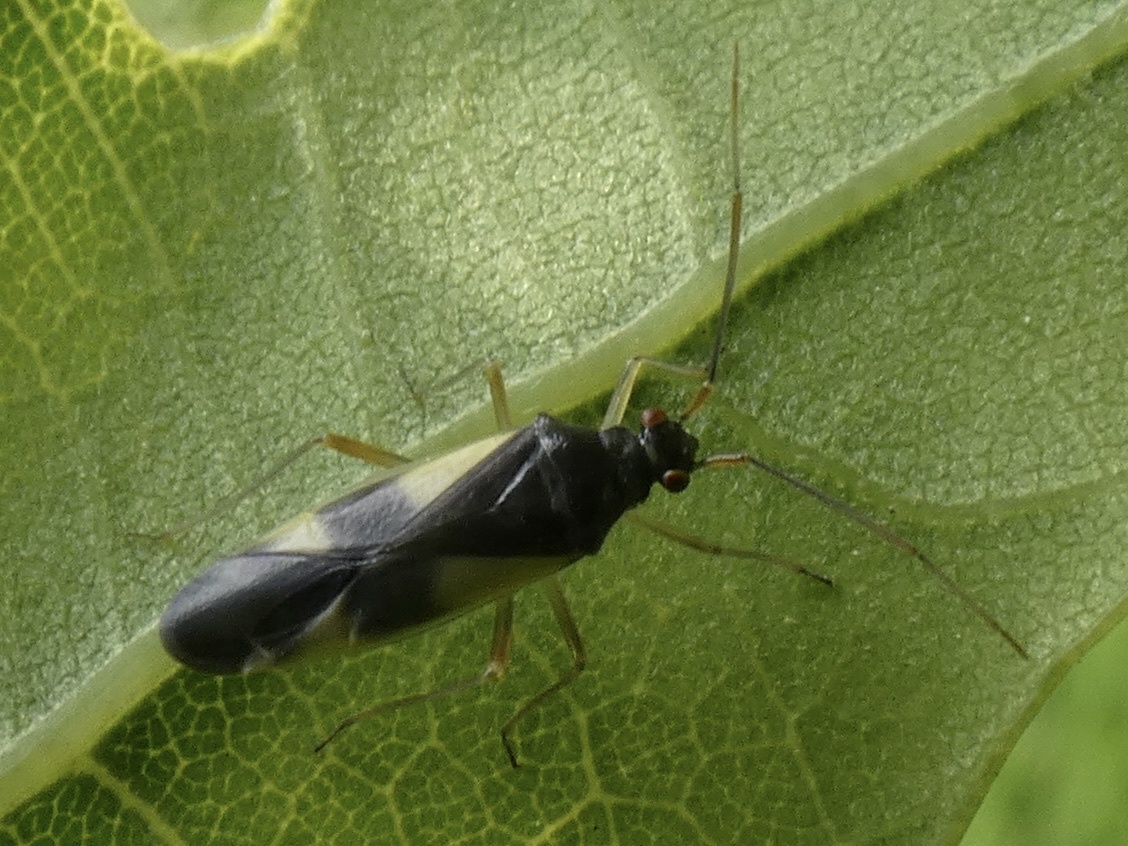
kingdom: Animalia
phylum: Arthropoda
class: Insecta
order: Hemiptera
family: Miridae
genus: Dryophilocoris
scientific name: Dryophilocoris flavoquadrimaculatus
